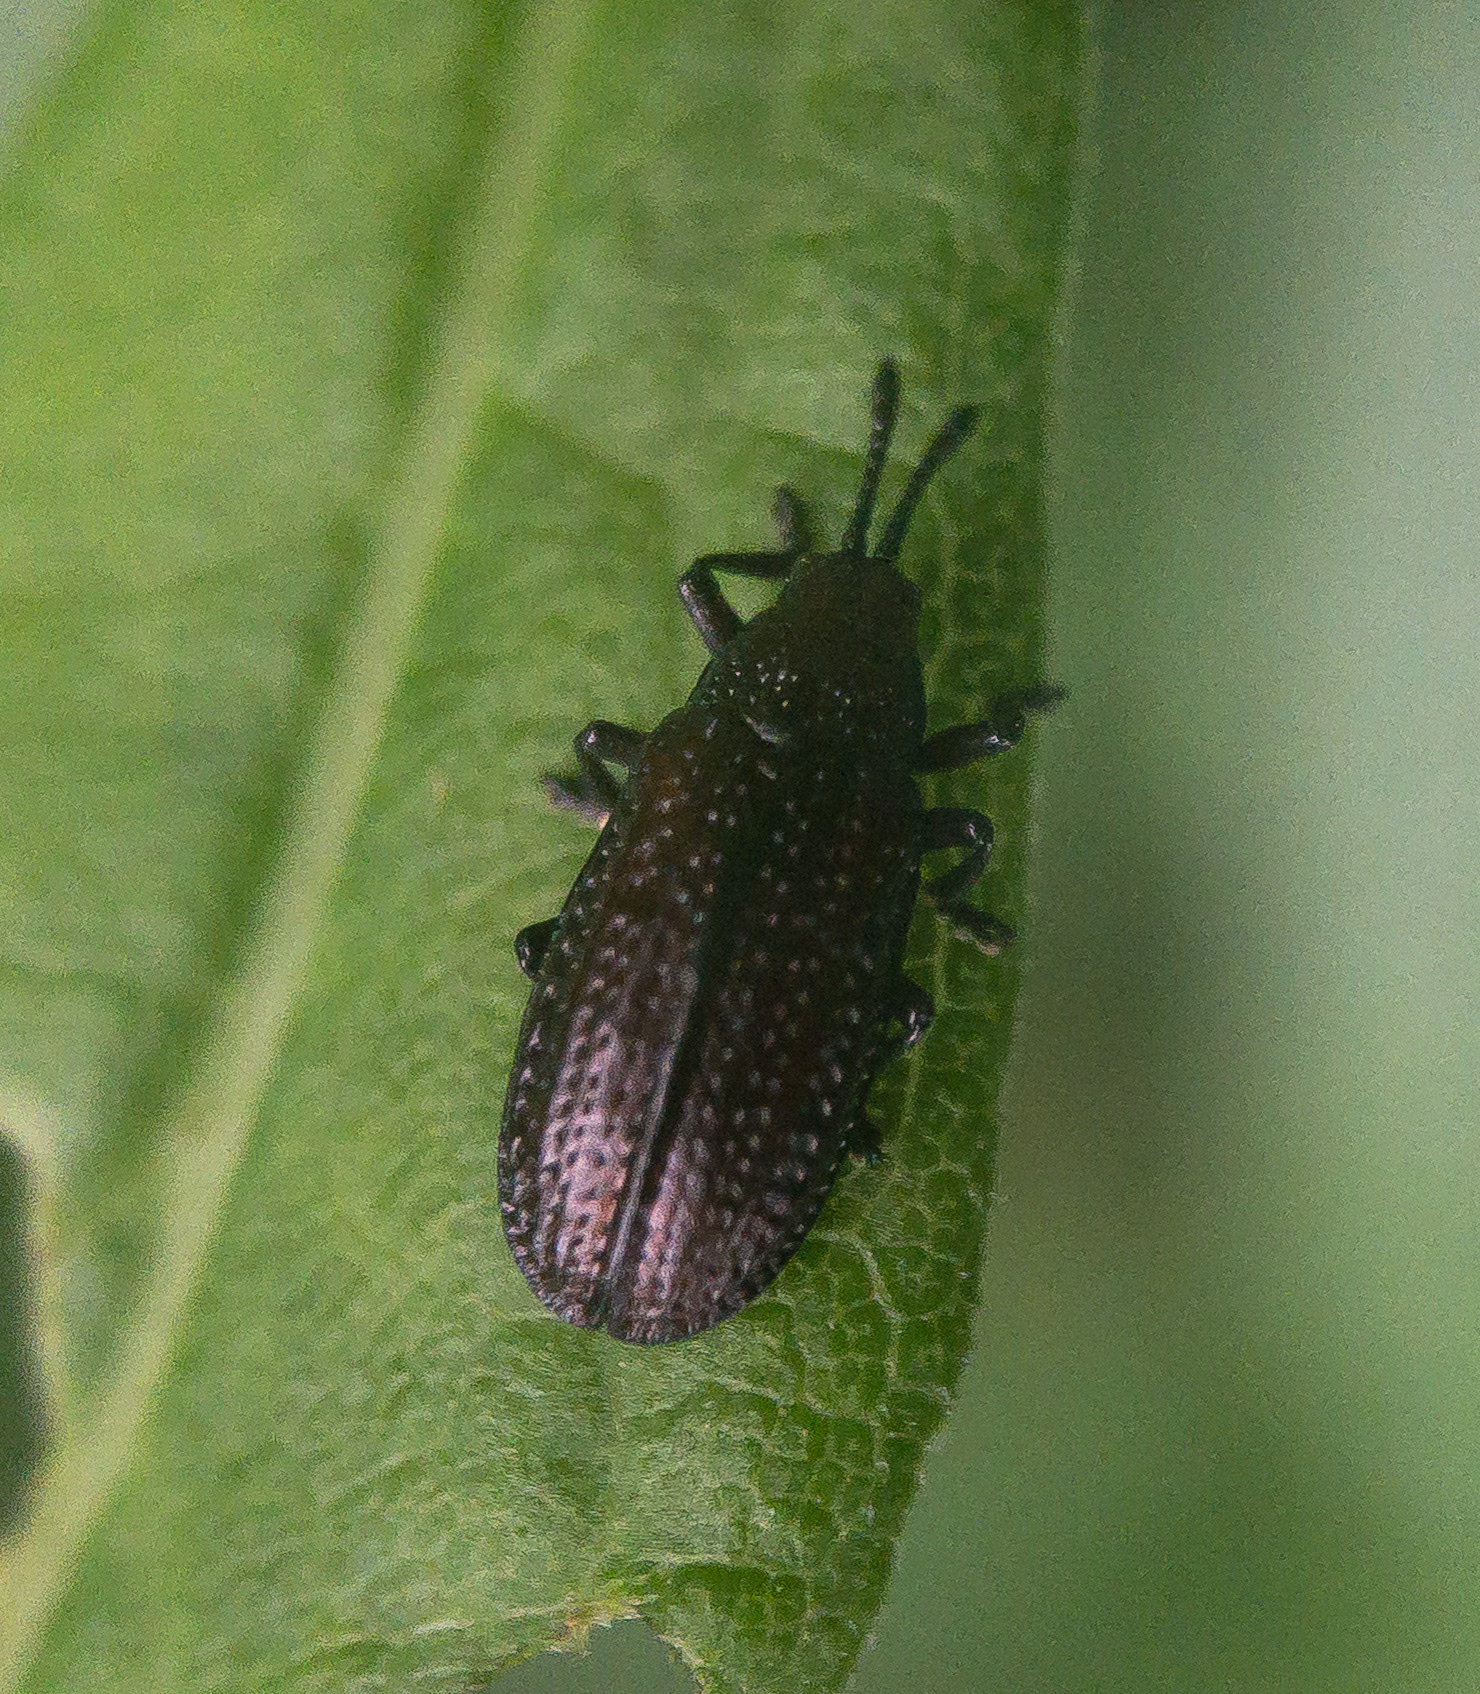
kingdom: Animalia
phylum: Arthropoda
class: Insecta
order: Coleoptera
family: Chrysomelidae
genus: Microrhopala
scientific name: Microrhopala vittata
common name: Goldenrod leaf miner beetle
